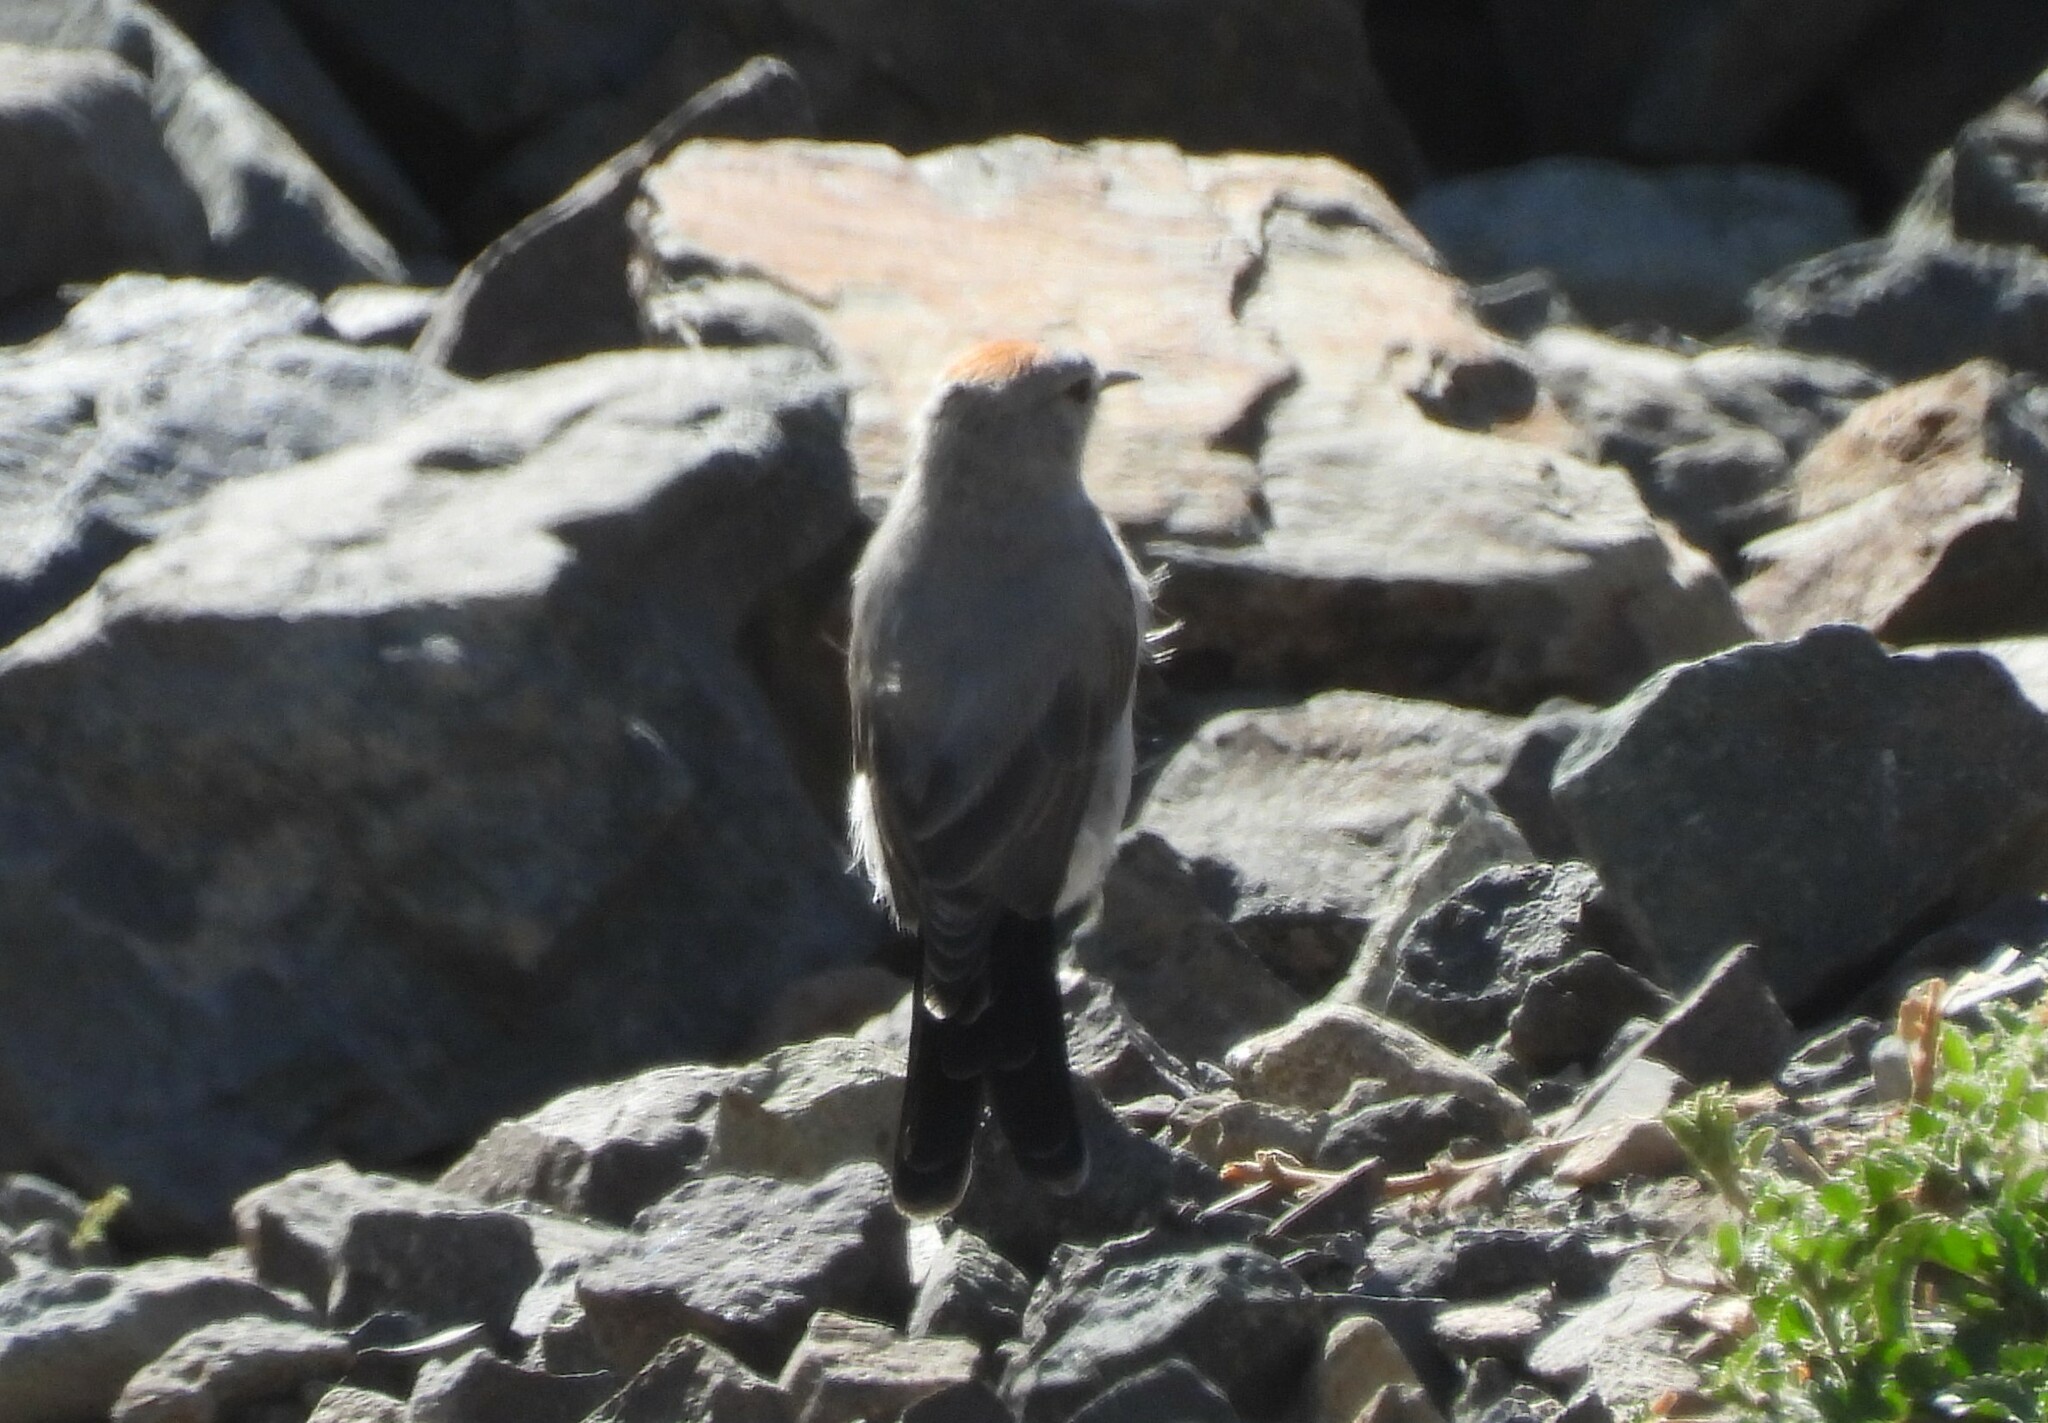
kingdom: Animalia
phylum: Chordata
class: Aves
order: Passeriformes
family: Tyrannidae
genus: Muscisaxicola
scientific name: Muscisaxicola rufivertex
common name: Rufous-naped ground tyrant
